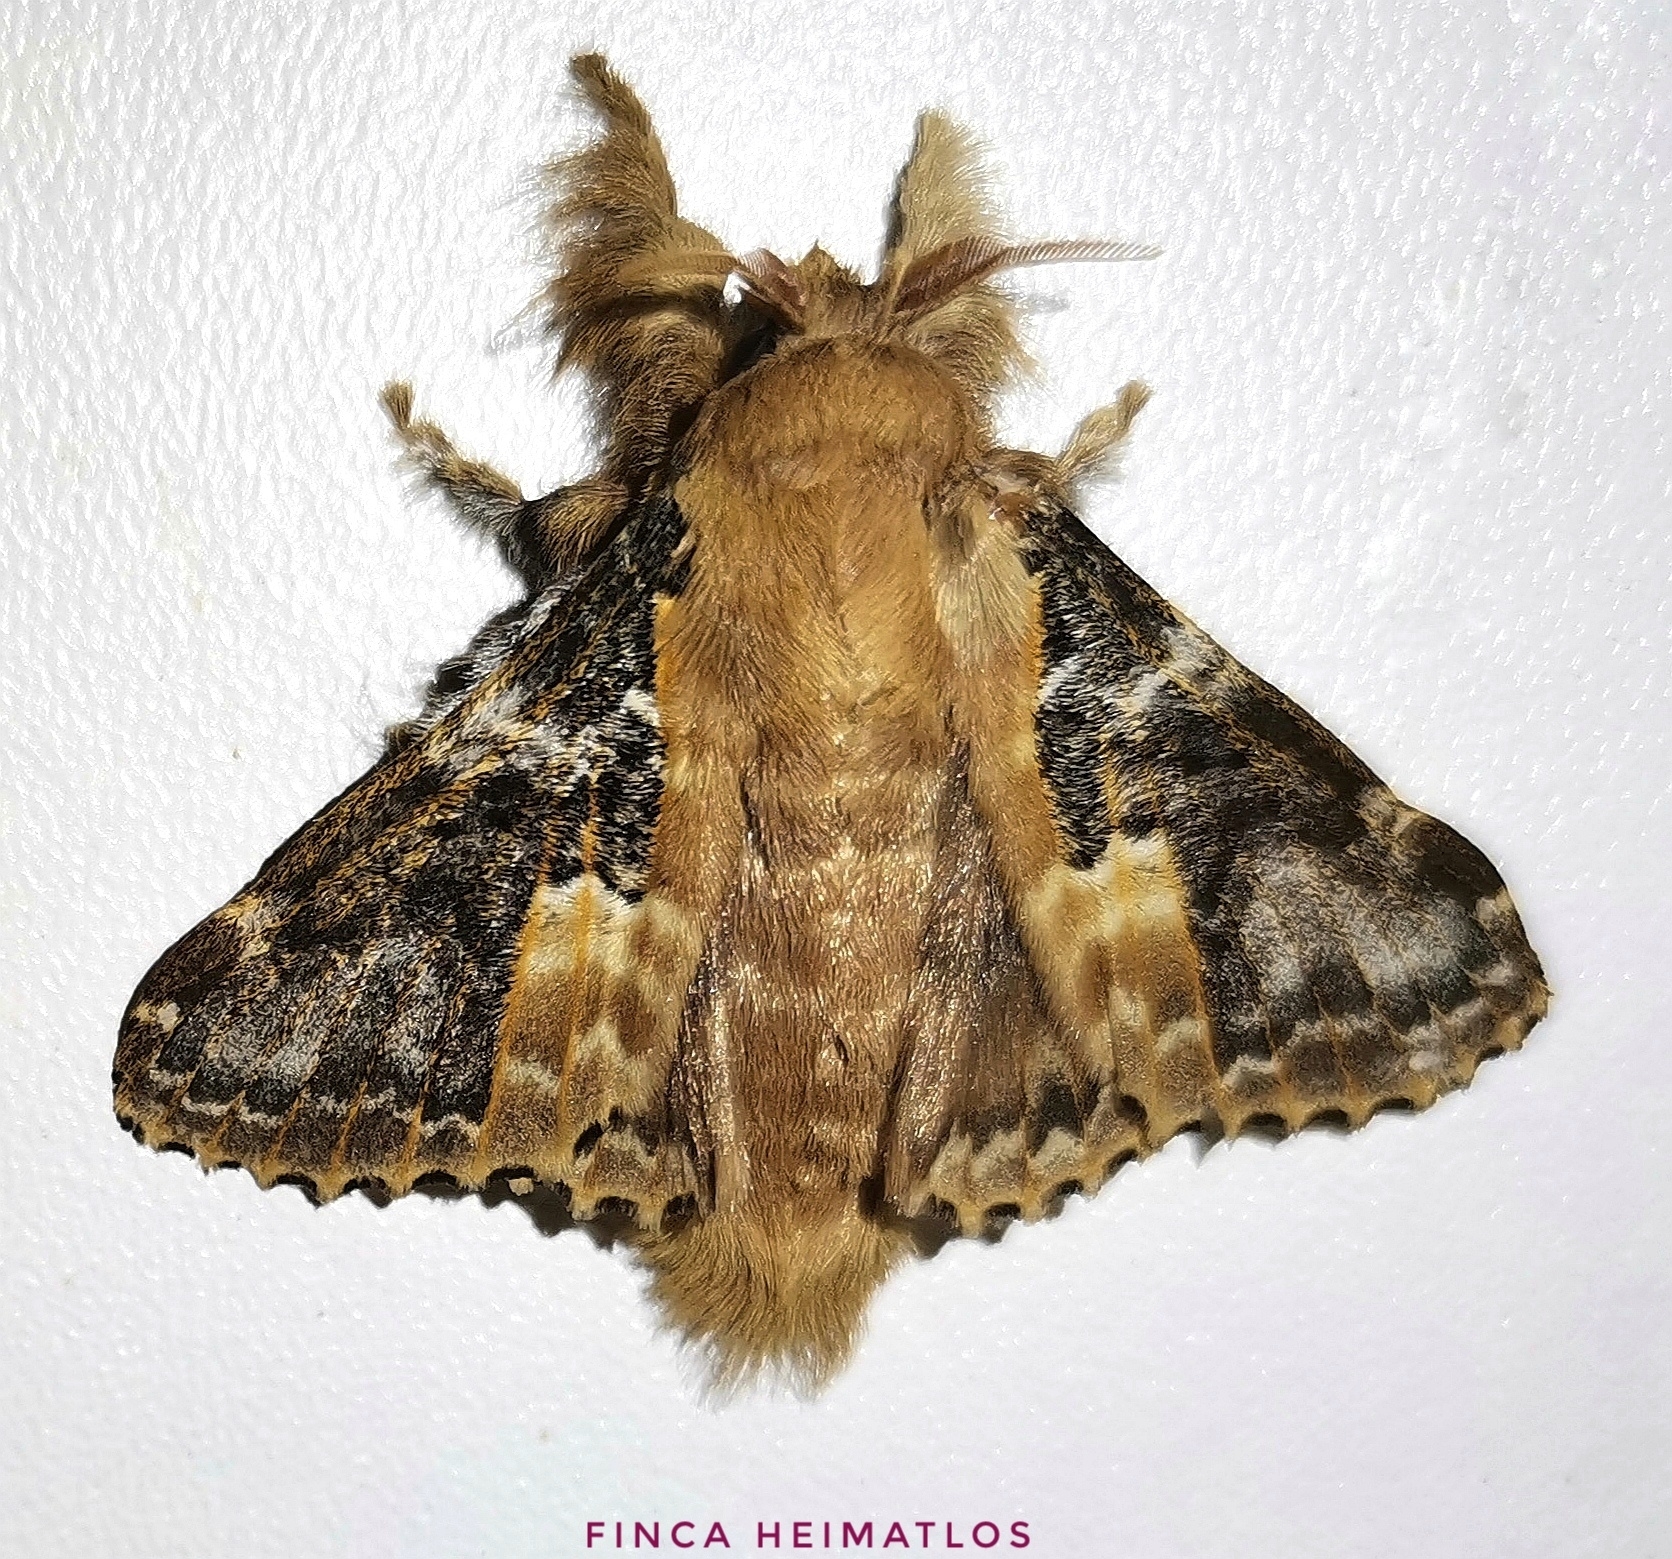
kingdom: Animalia
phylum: Arthropoda
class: Insecta
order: Lepidoptera
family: Lasiocampidae
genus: Euglyphis
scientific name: Euglyphis claudia
